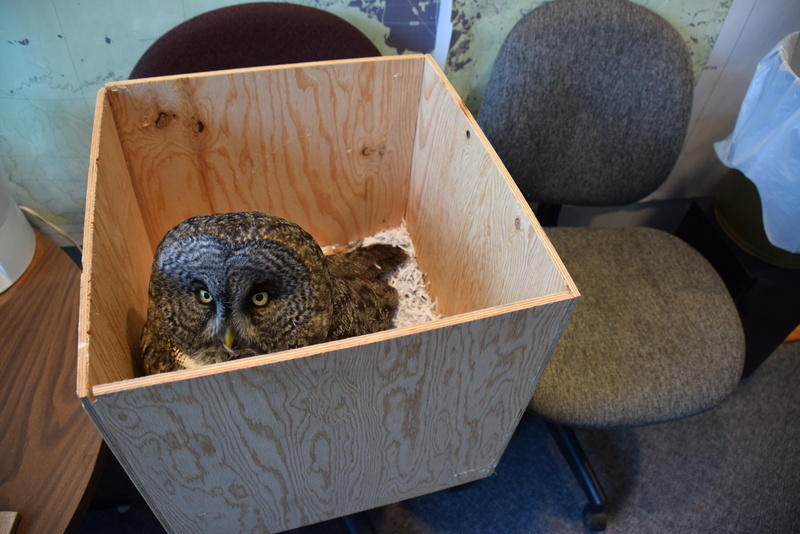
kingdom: Animalia
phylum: Chordata
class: Aves
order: Strigiformes
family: Strigidae
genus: Strix
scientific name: Strix nebulosa
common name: Great grey owl
